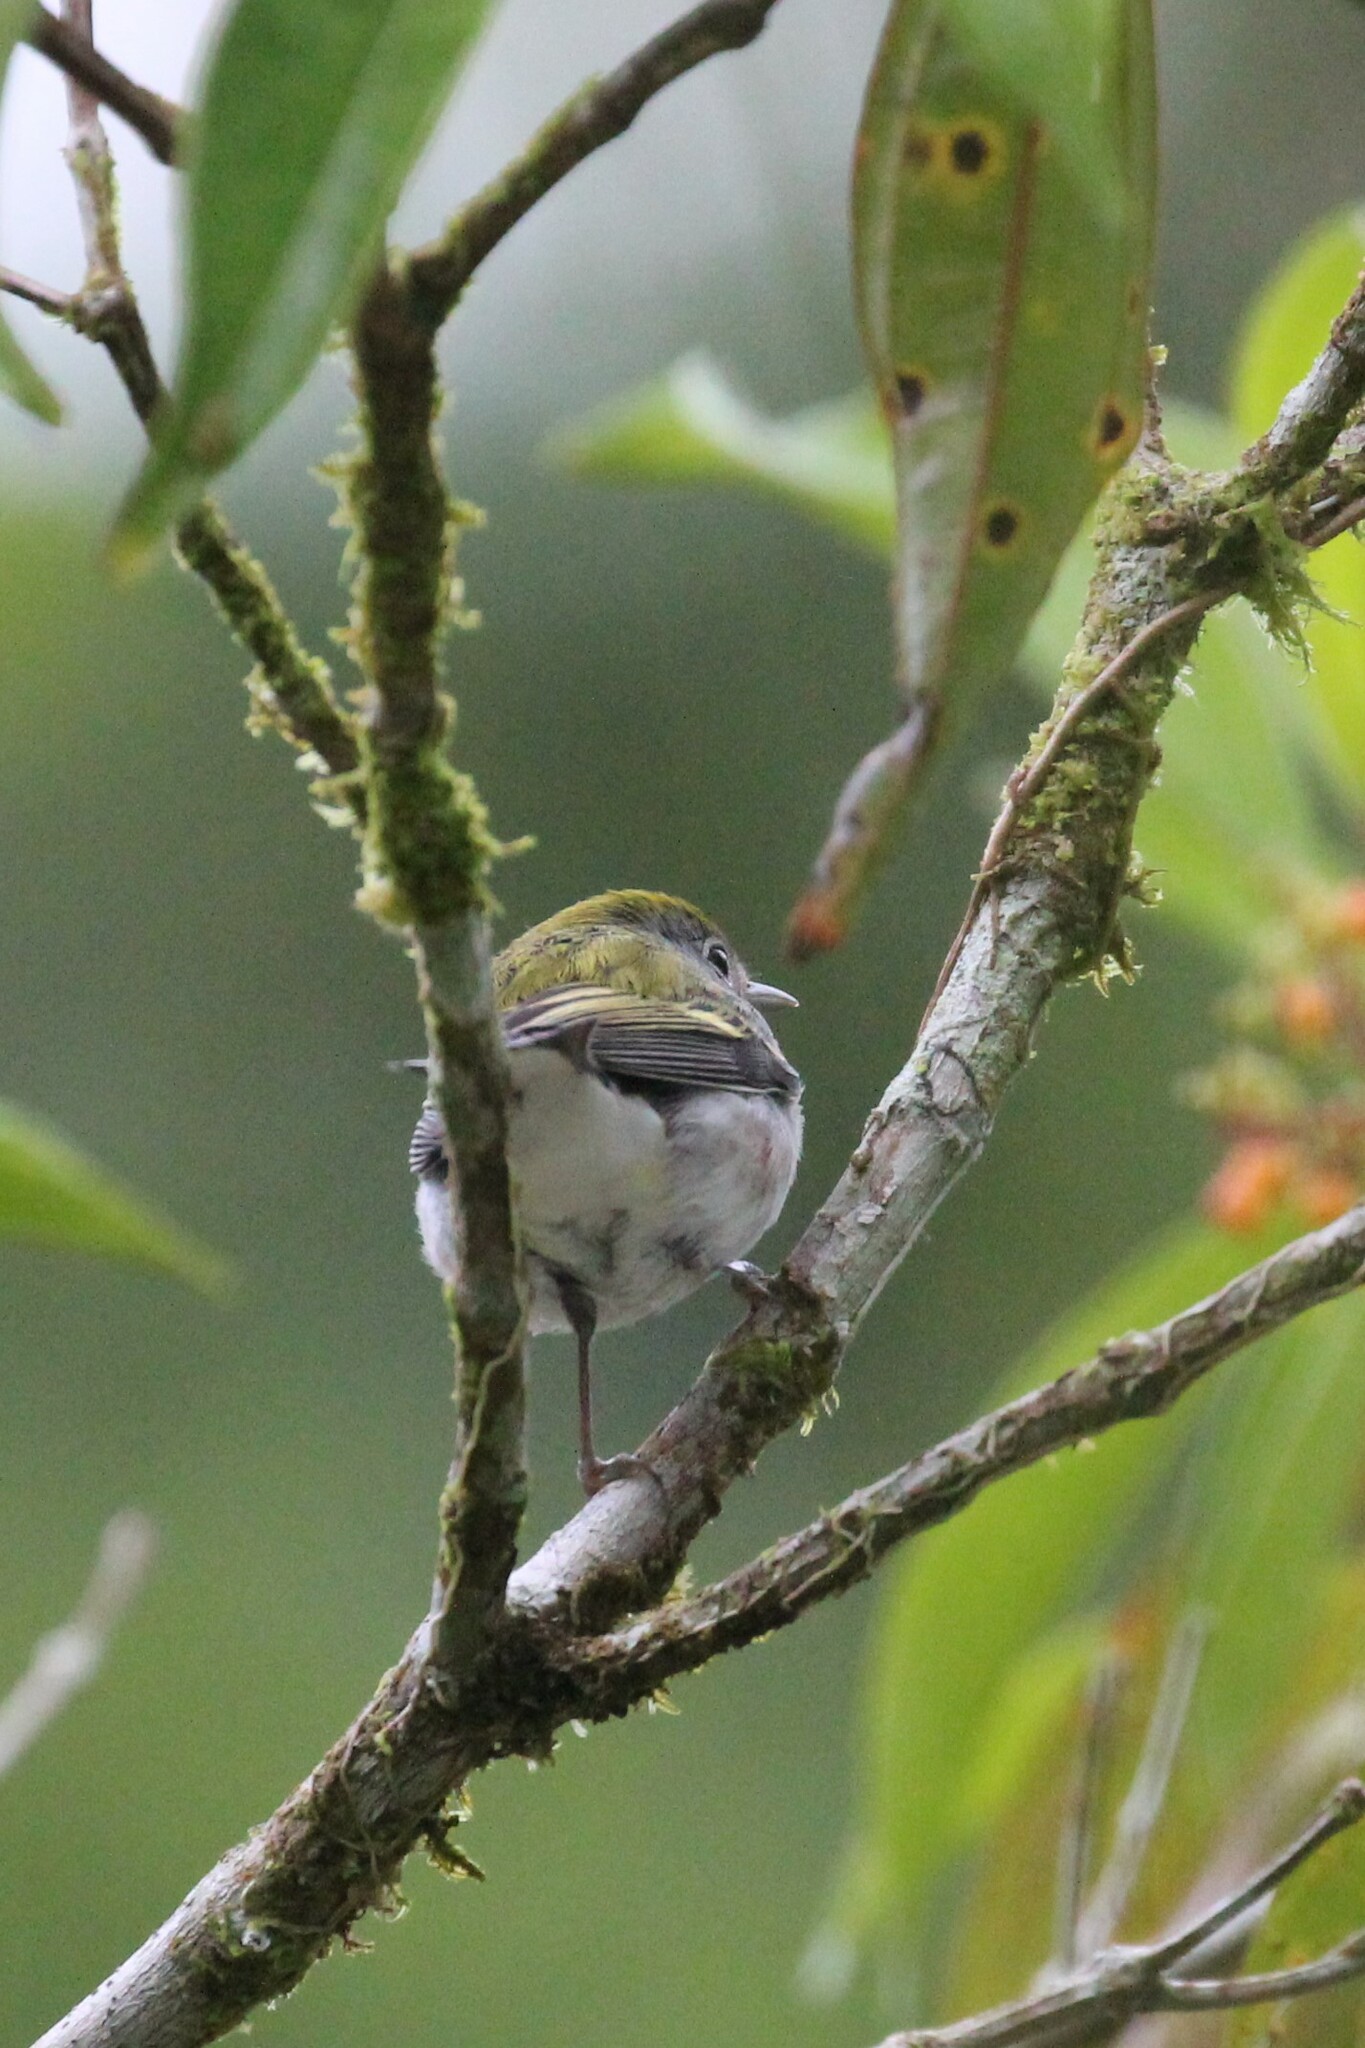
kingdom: Animalia
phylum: Chordata
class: Aves
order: Passeriformes
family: Parulidae
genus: Setophaga
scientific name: Setophaga pensylvanica
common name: Chestnut-sided warbler
